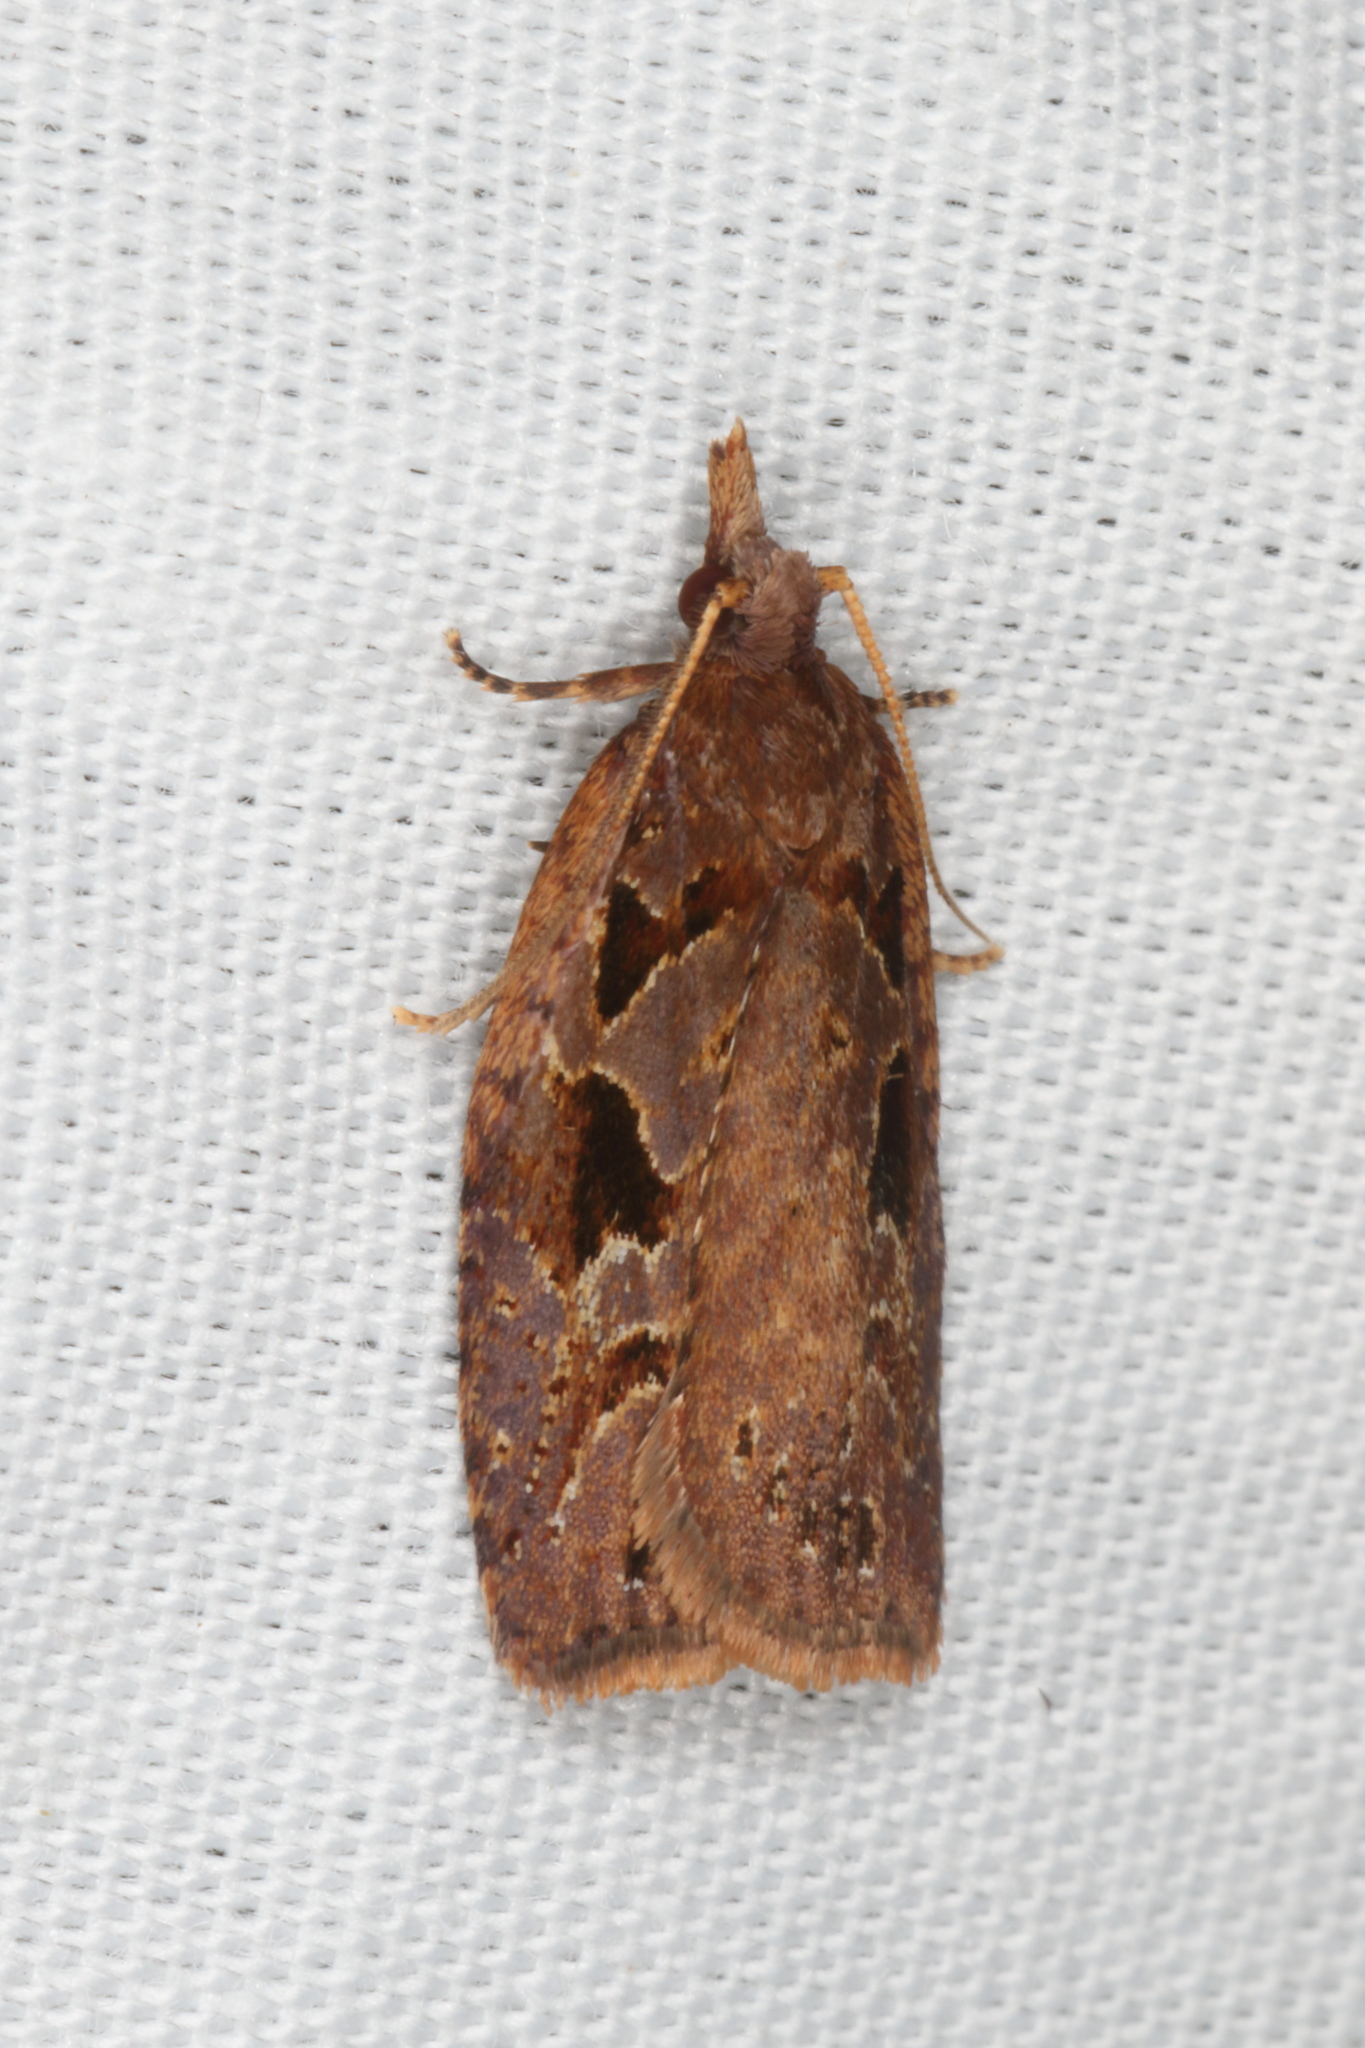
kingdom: Animalia
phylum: Arthropoda
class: Insecta
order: Lepidoptera
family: Tortricidae
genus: Ctenopseustis
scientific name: Ctenopseustis fraterna
